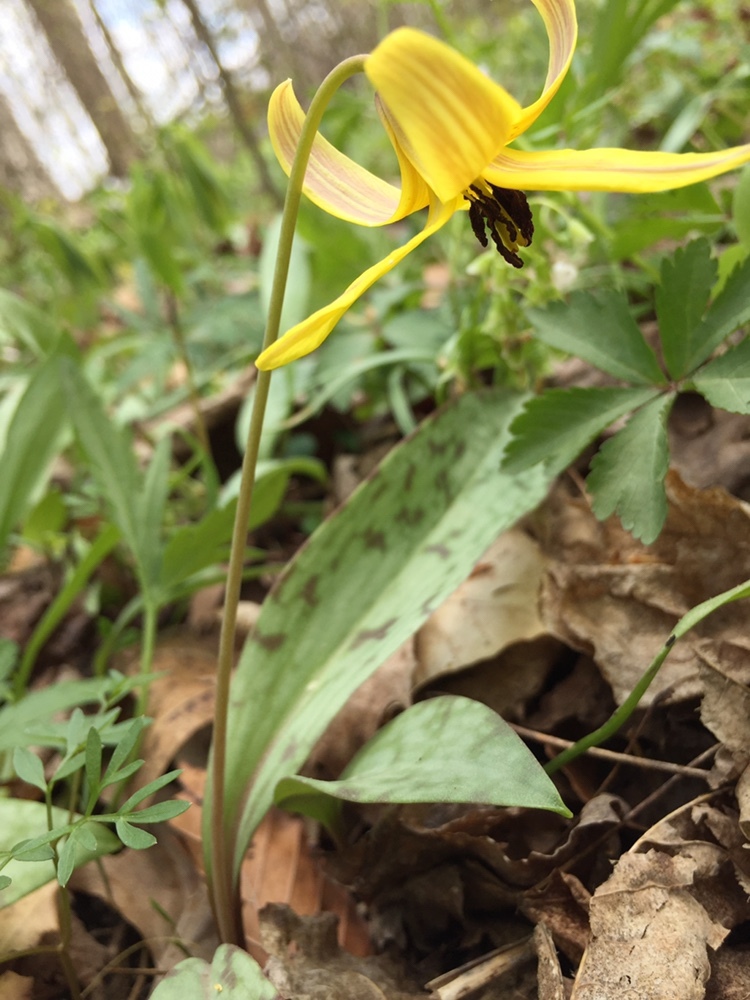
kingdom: Plantae
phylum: Tracheophyta
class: Liliopsida
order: Liliales
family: Liliaceae
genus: Erythronium
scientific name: Erythronium americanum
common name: Yellow adder's-tongue
